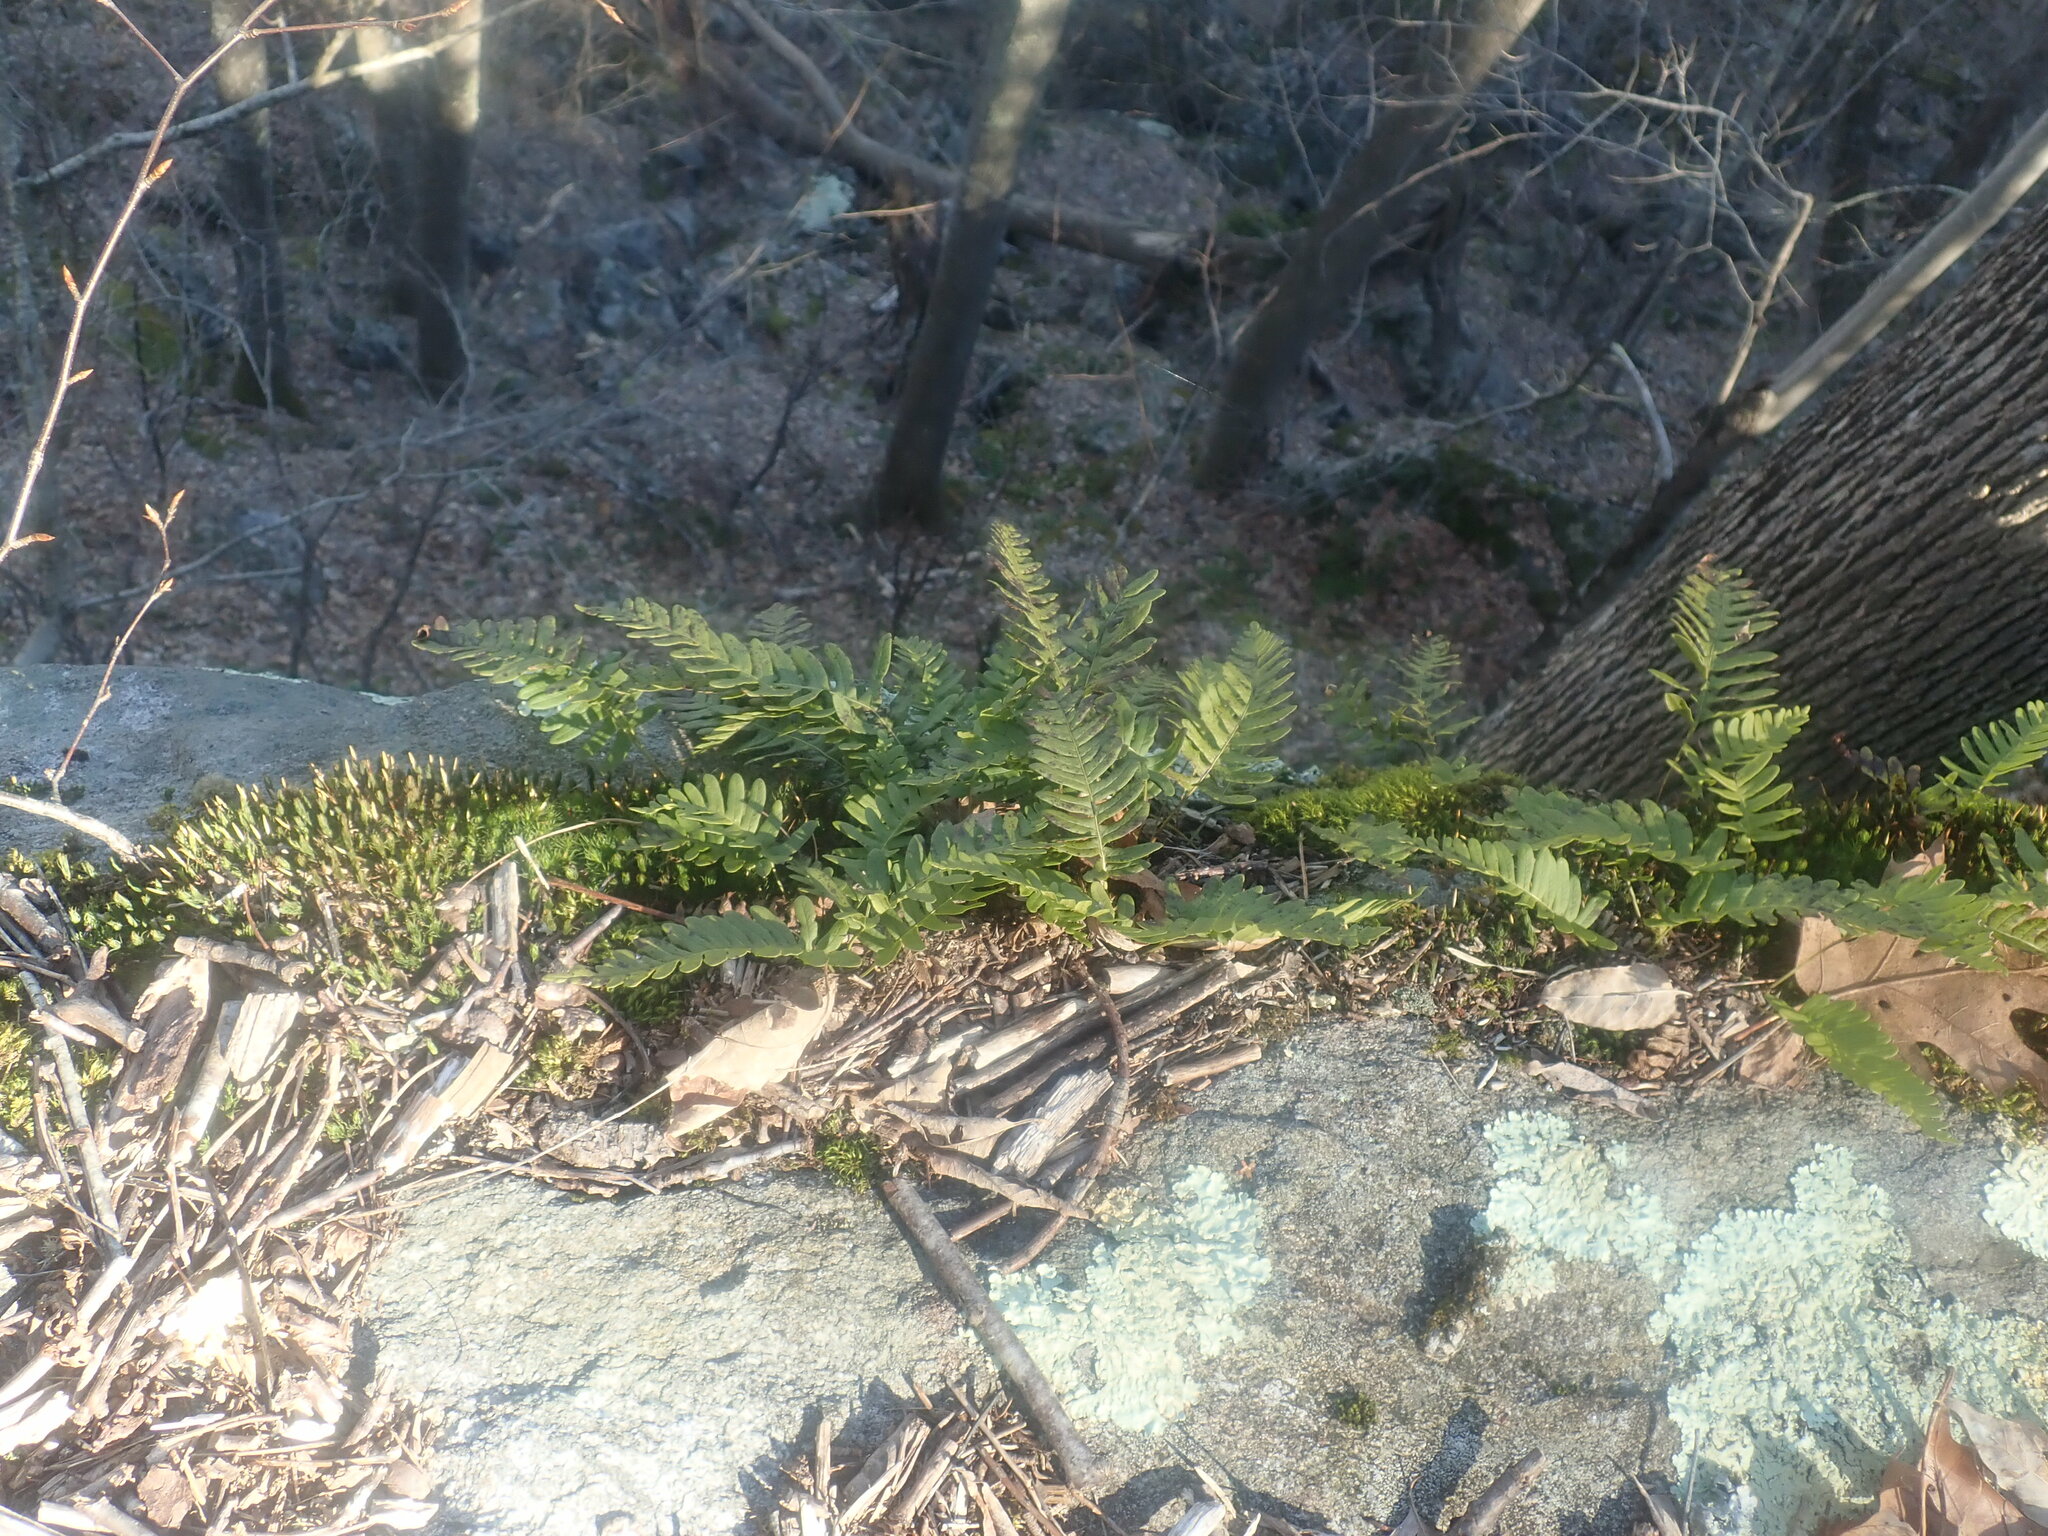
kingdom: Plantae
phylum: Tracheophyta
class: Polypodiopsida
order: Polypodiales
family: Polypodiaceae
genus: Polypodium
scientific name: Polypodium virginianum
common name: American wall fern
